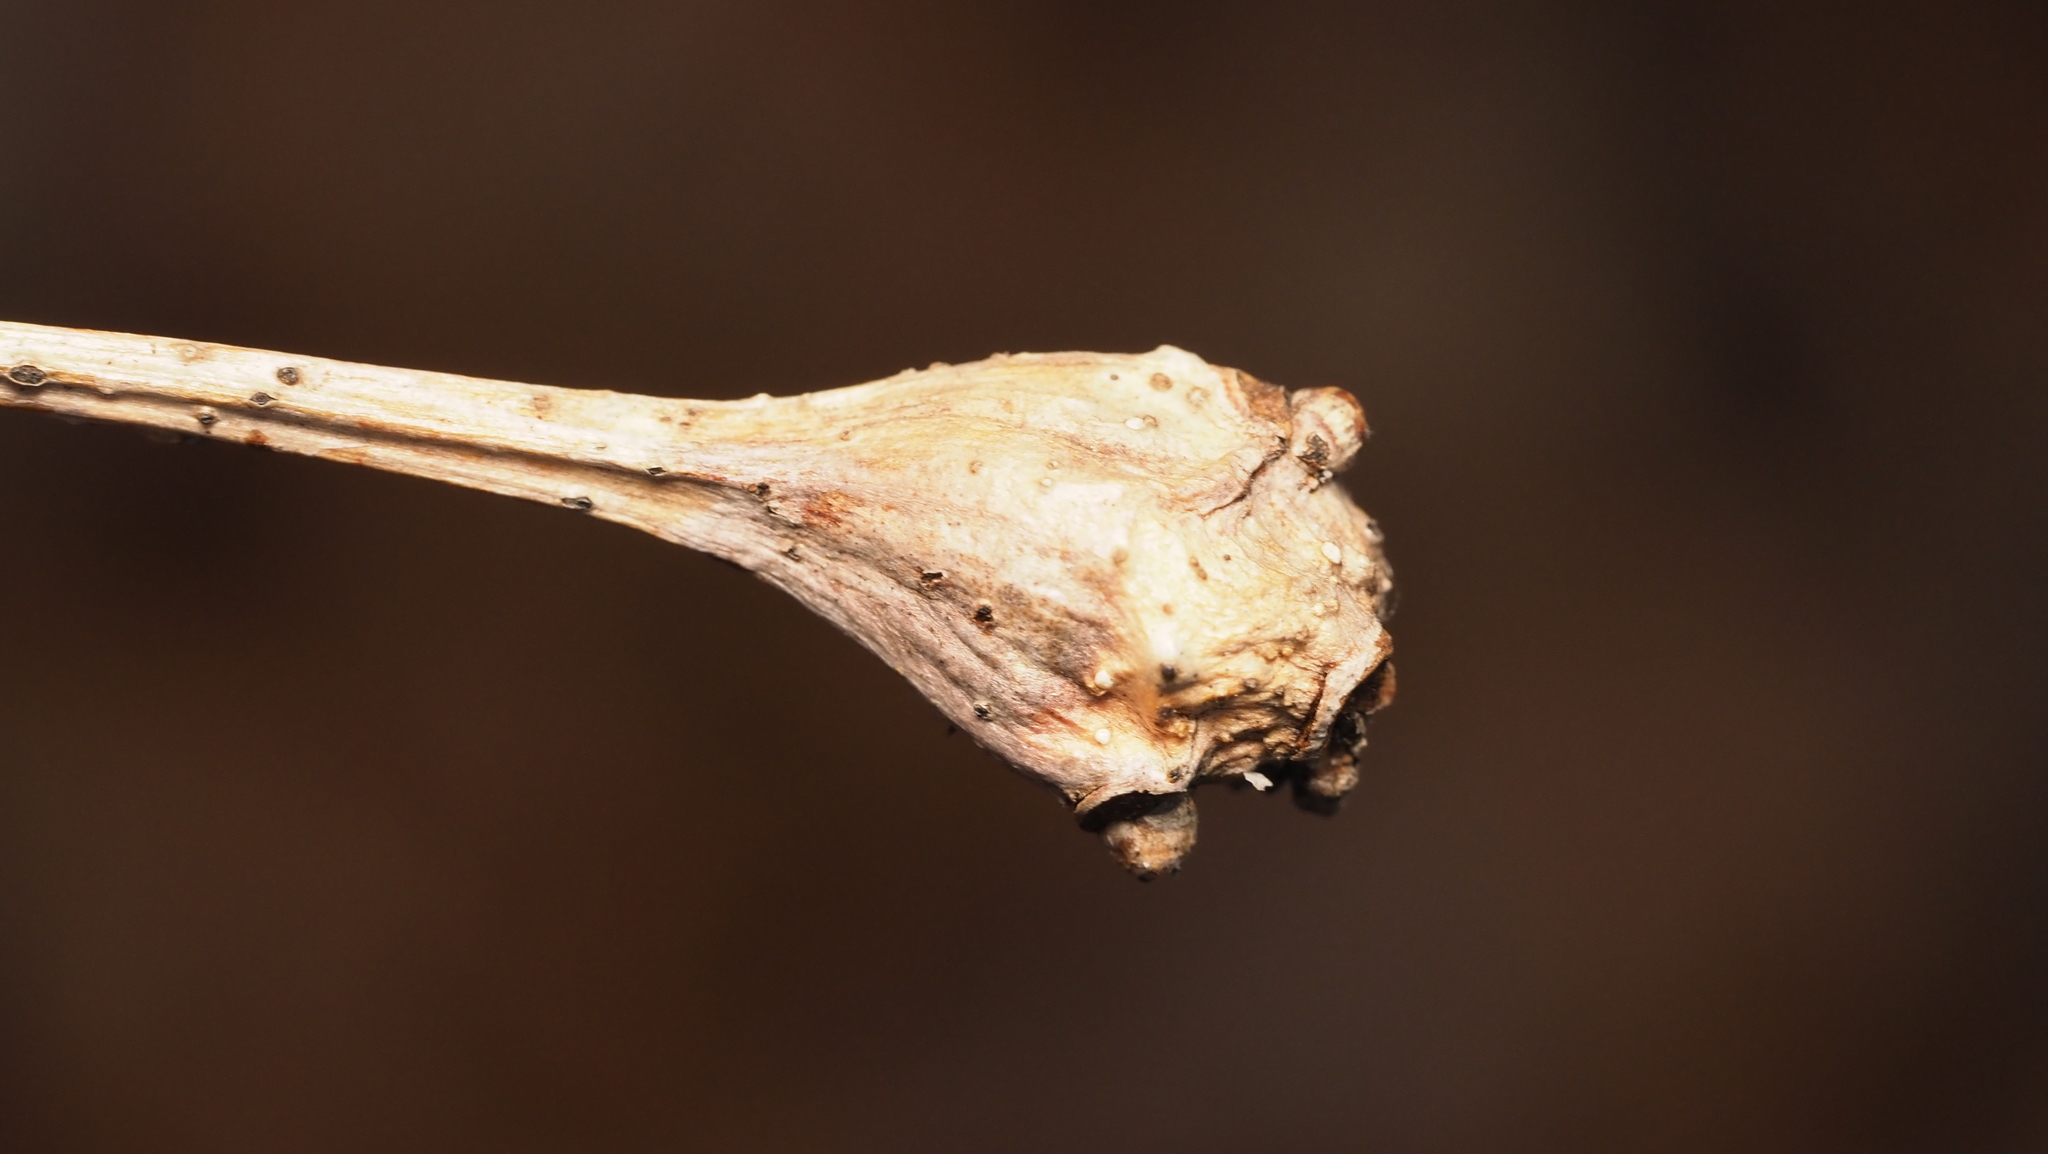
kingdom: Animalia
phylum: Arthropoda
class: Insecta
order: Hymenoptera
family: Cynipidae
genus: Callirhytis
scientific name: Callirhytis clavula
